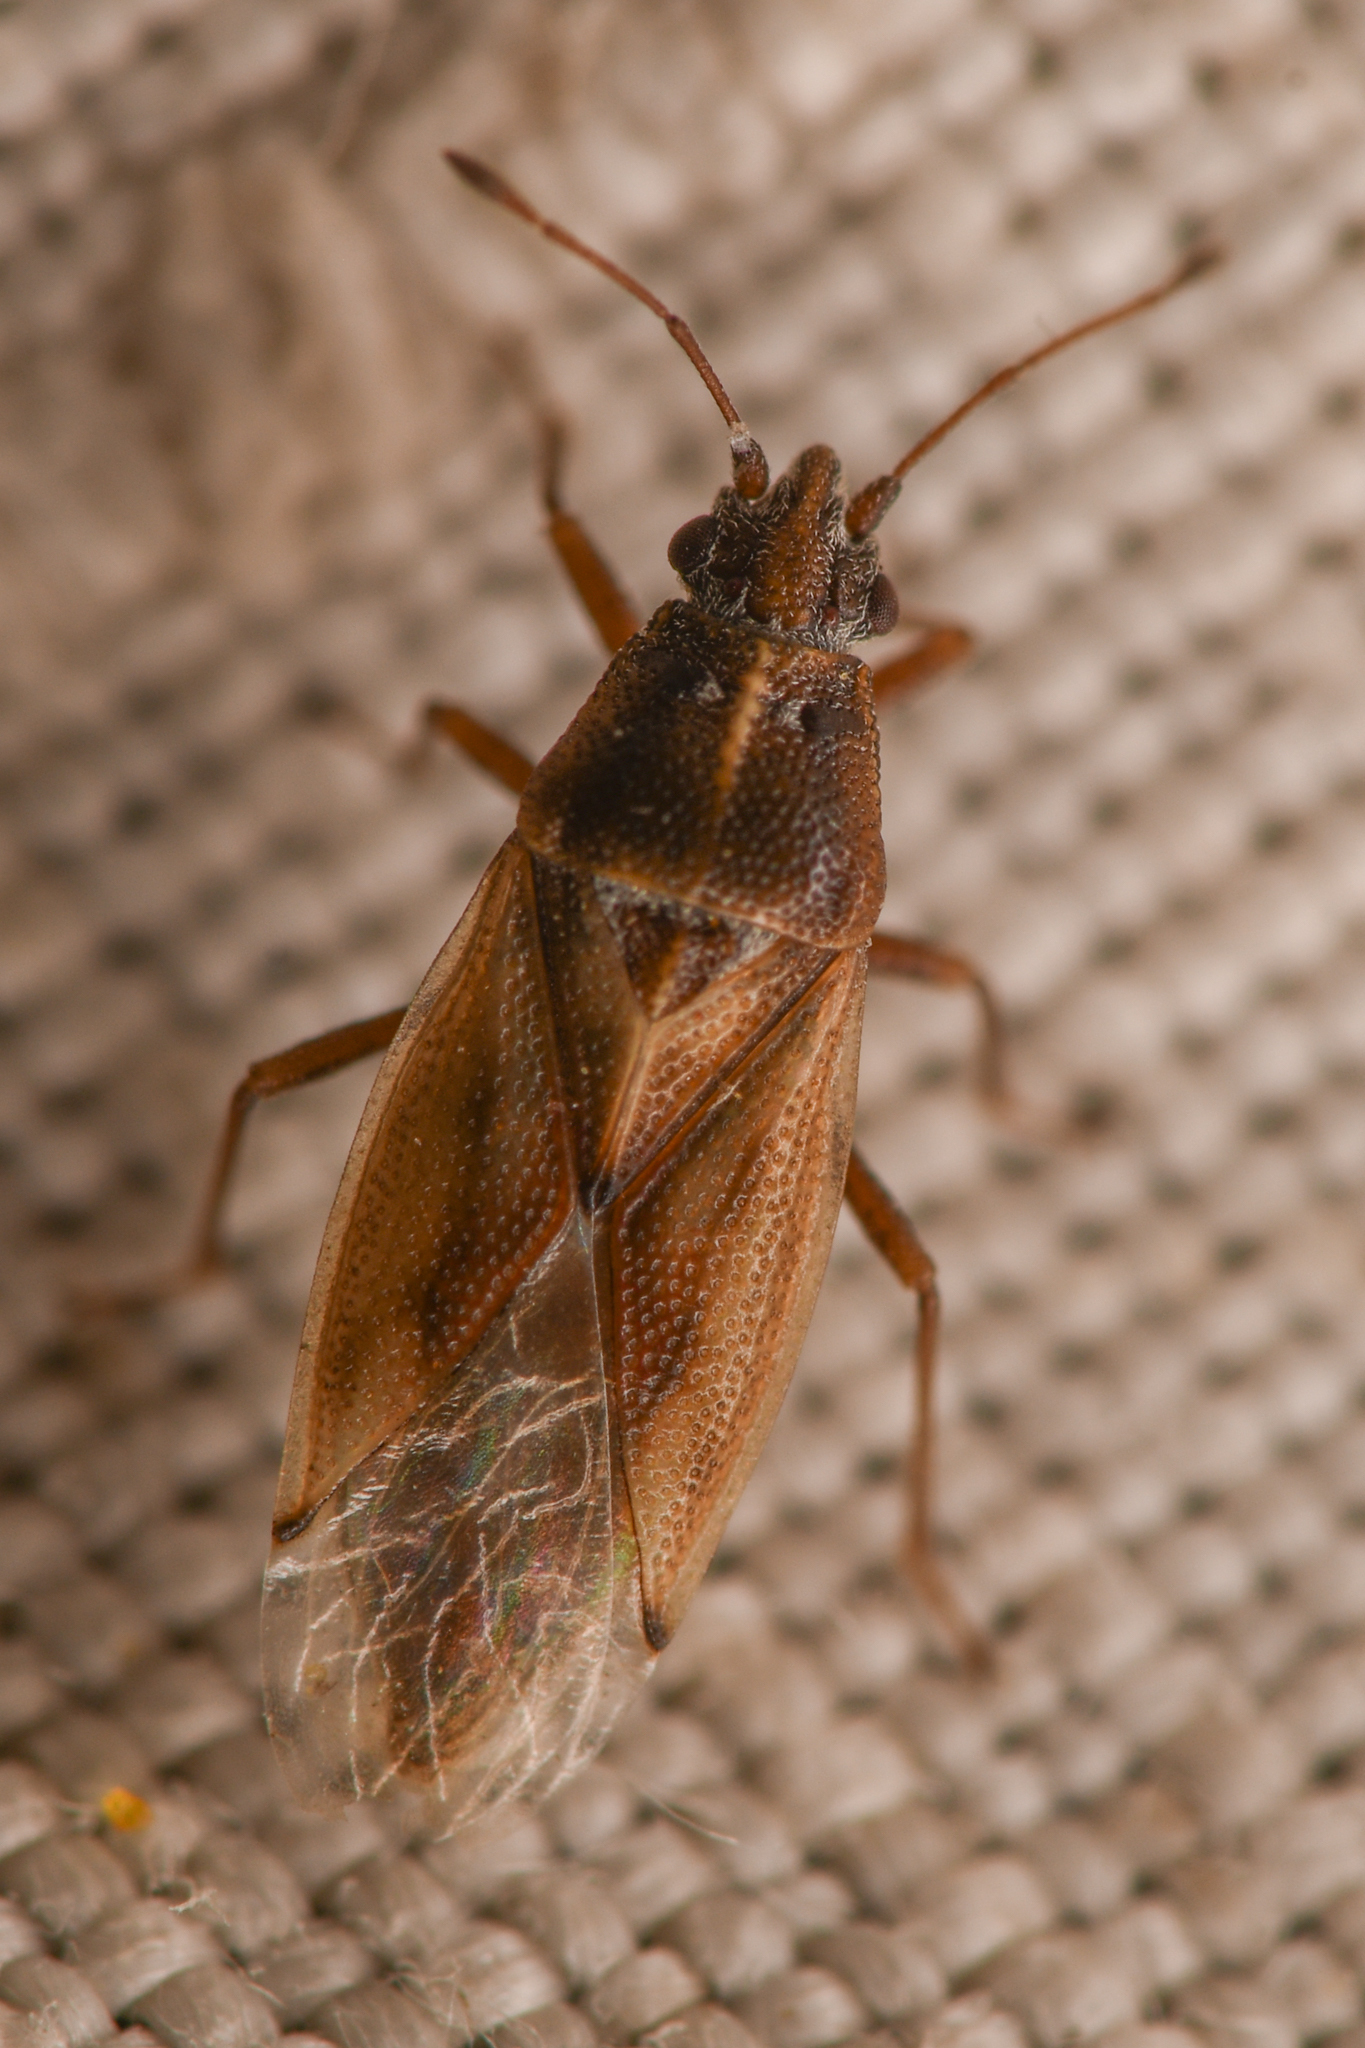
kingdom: Animalia
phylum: Arthropoda
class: Insecta
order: Hemiptera
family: Cymidae
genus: Cymus
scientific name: Cymus luridus
